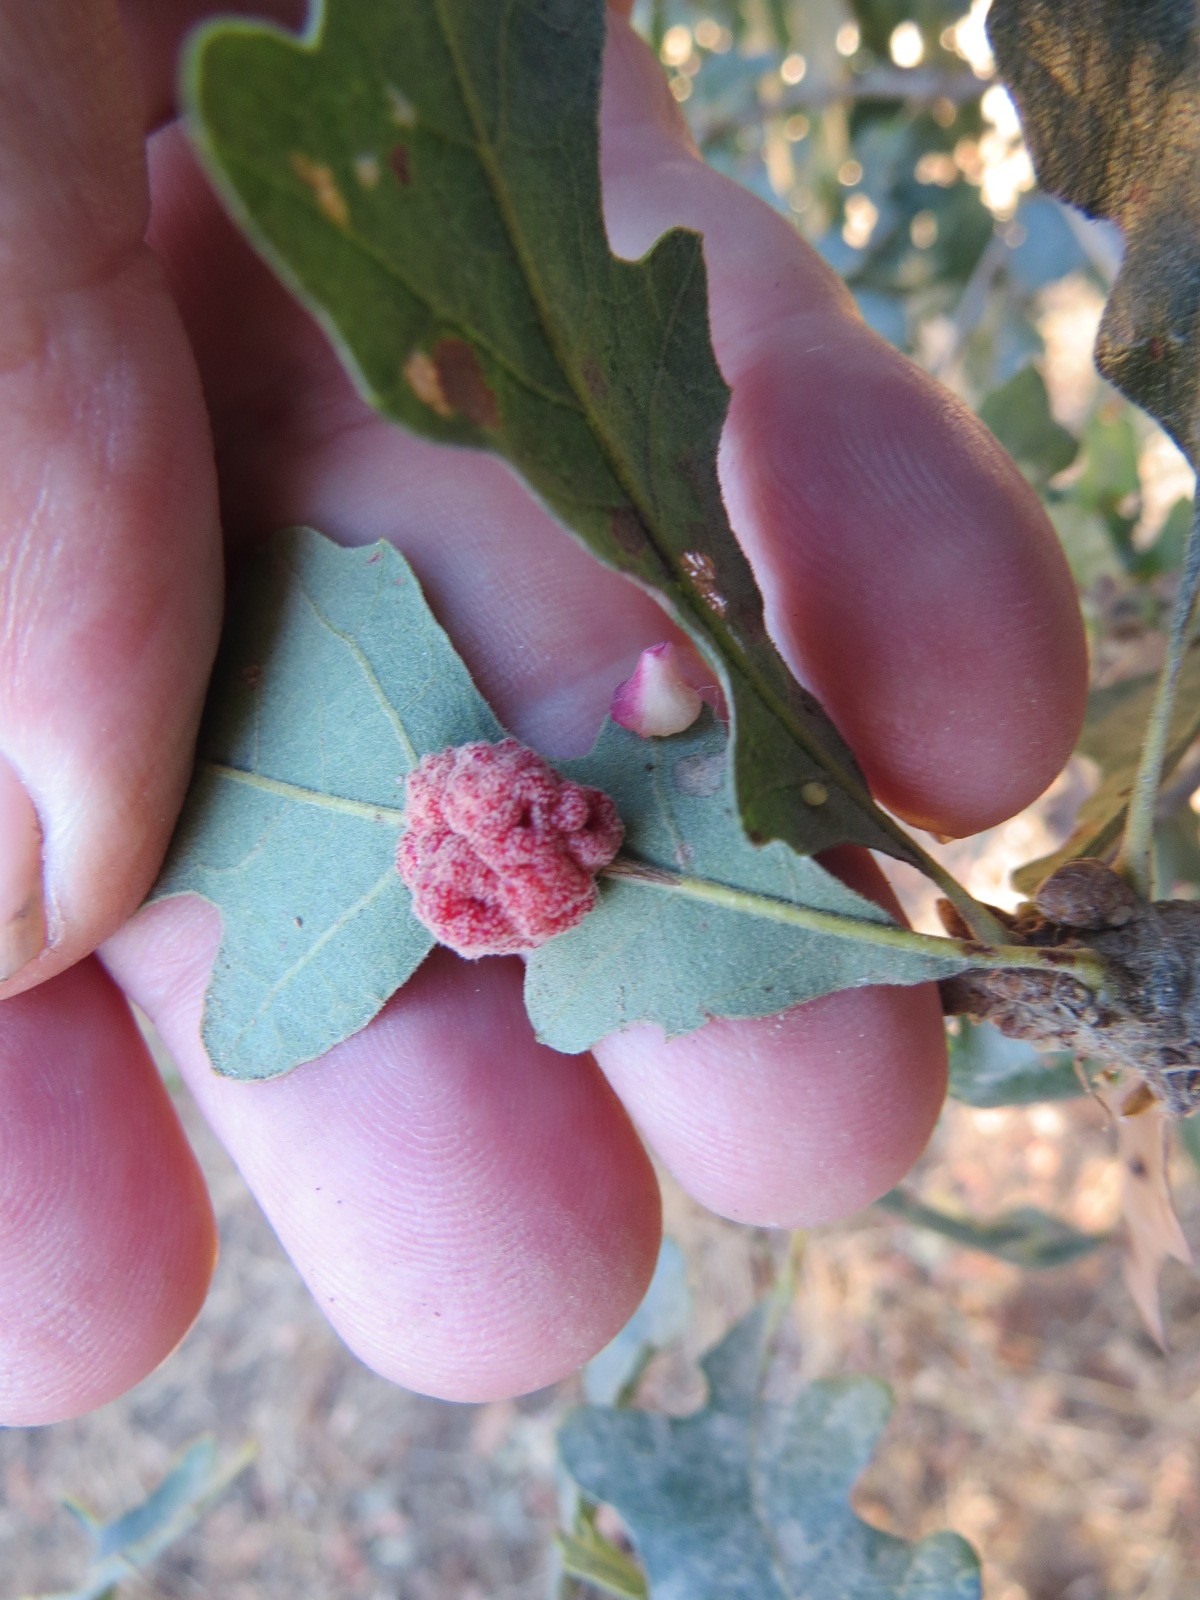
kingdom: Animalia
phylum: Arthropoda
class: Insecta
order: Hymenoptera
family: Cynipidae
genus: Andricus
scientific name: Andricus
